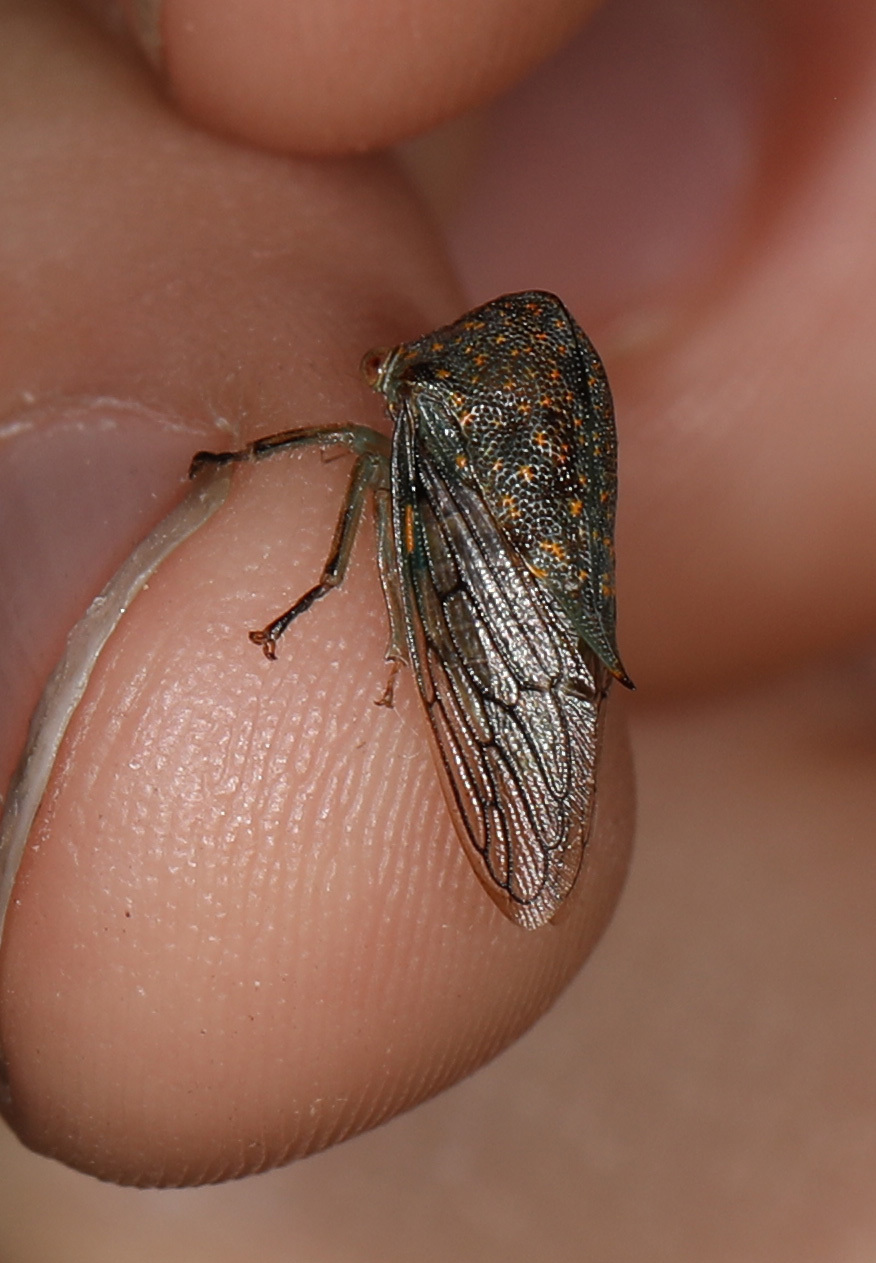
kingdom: Animalia
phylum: Arthropoda
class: Insecta
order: Hemiptera
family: Membracidae
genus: Platycotis
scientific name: Platycotis vittatus
